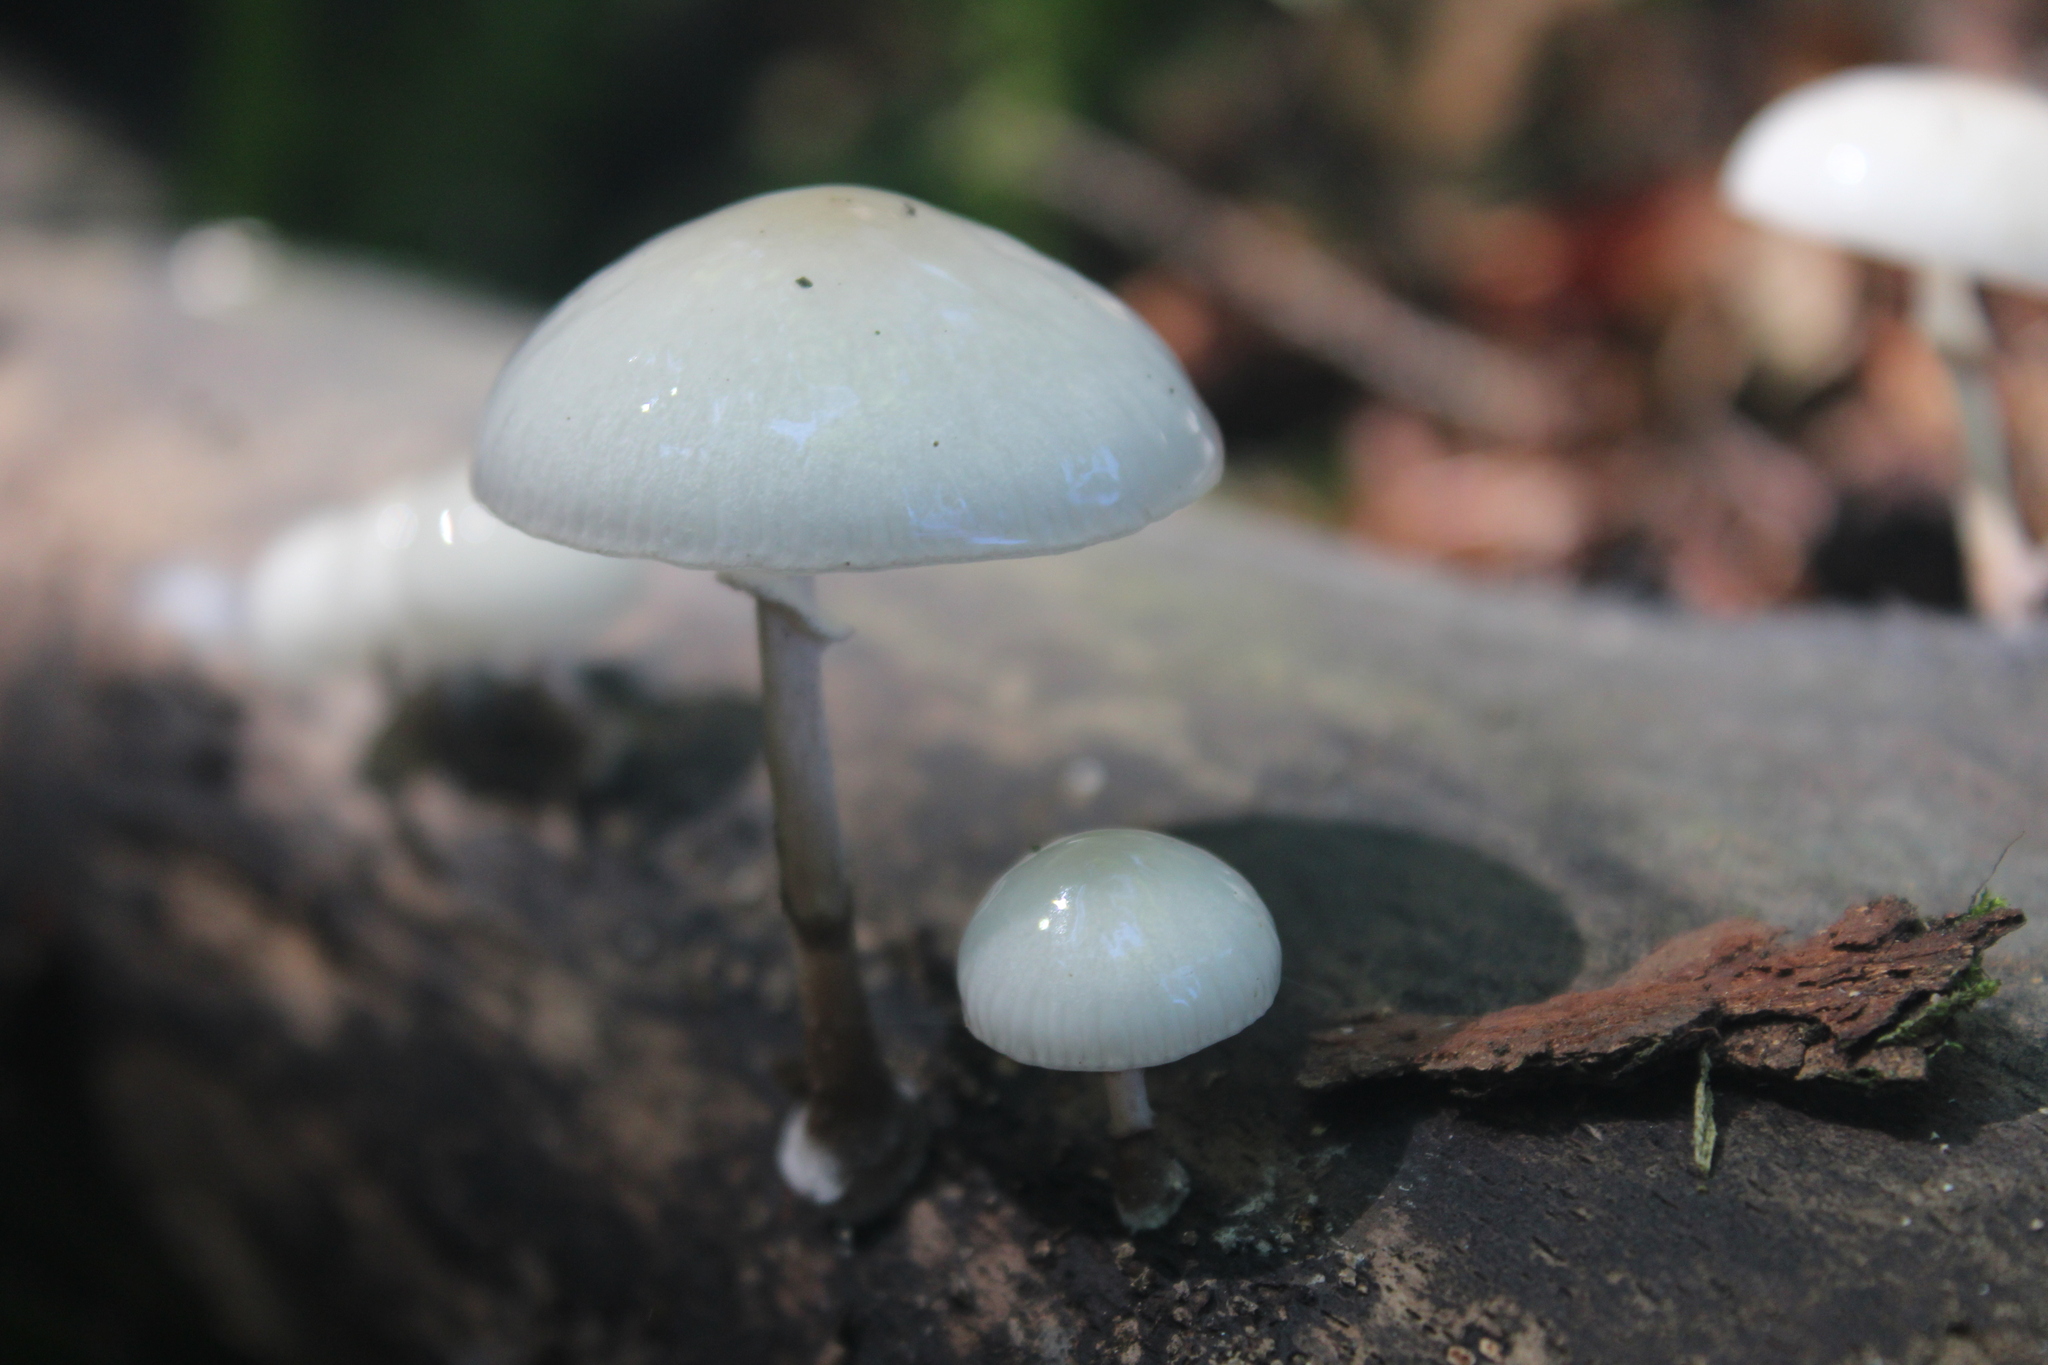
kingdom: Fungi
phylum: Basidiomycota
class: Agaricomycetes
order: Agaricales
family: Physalacriaceae
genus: Mucidula
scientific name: Mucidula mucida
